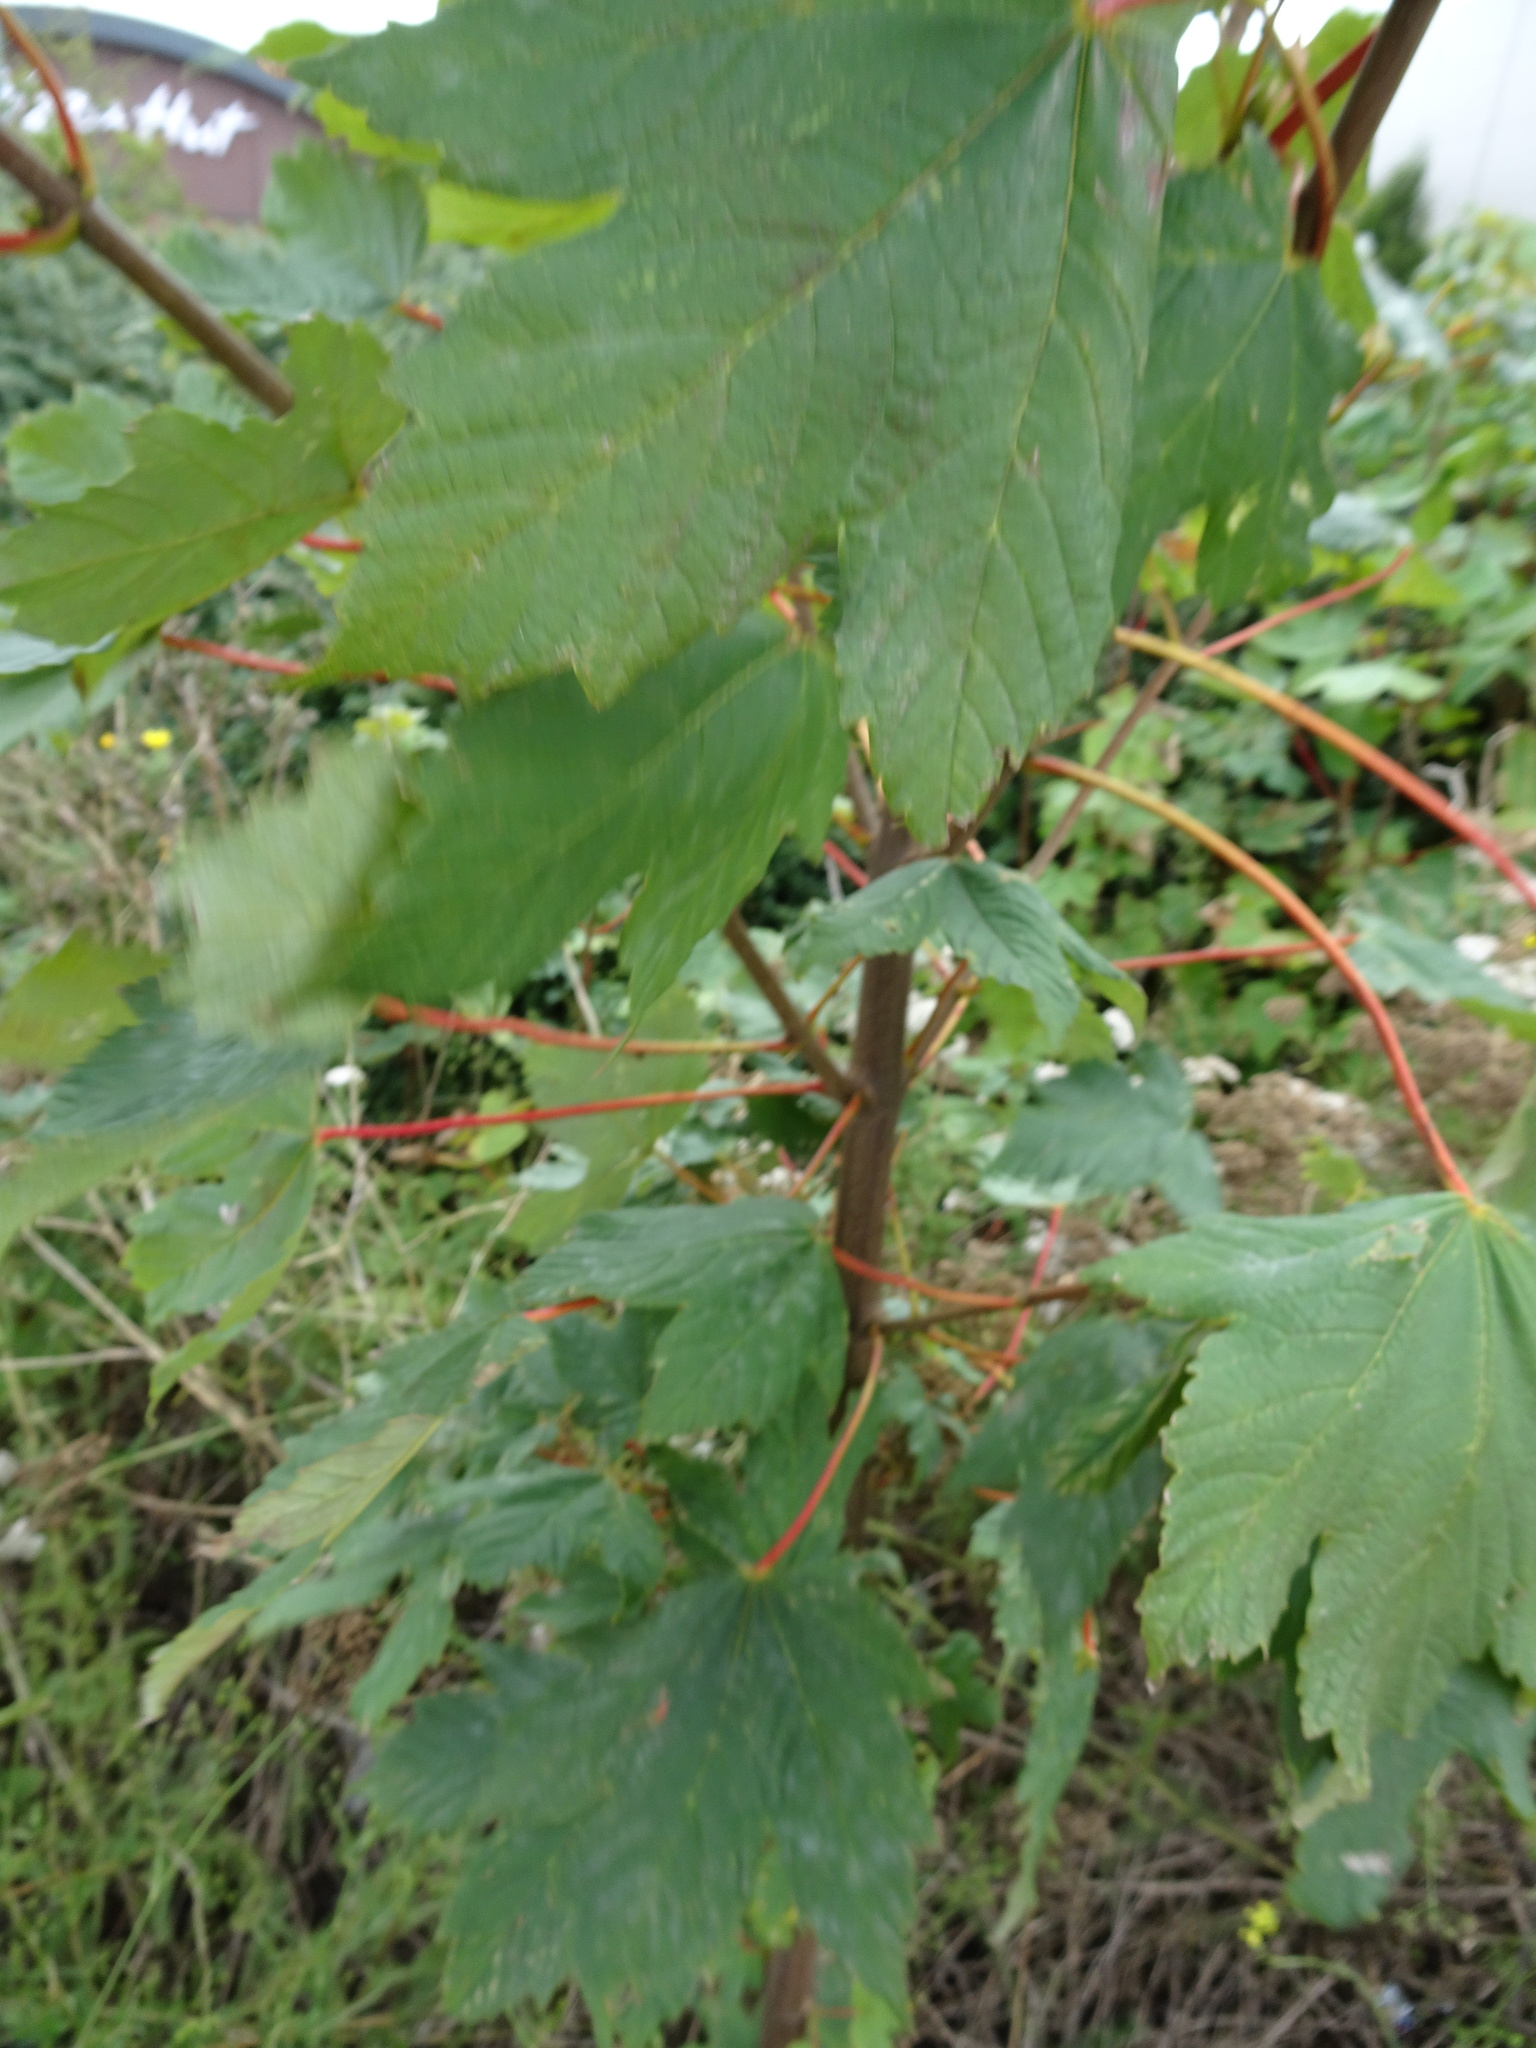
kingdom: Plantae
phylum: Tracheophyta
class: Magnoliopsida
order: Sapindales
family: Sapindaceae
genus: Acer
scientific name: Acer pseudoplatanus
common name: Sycamore
